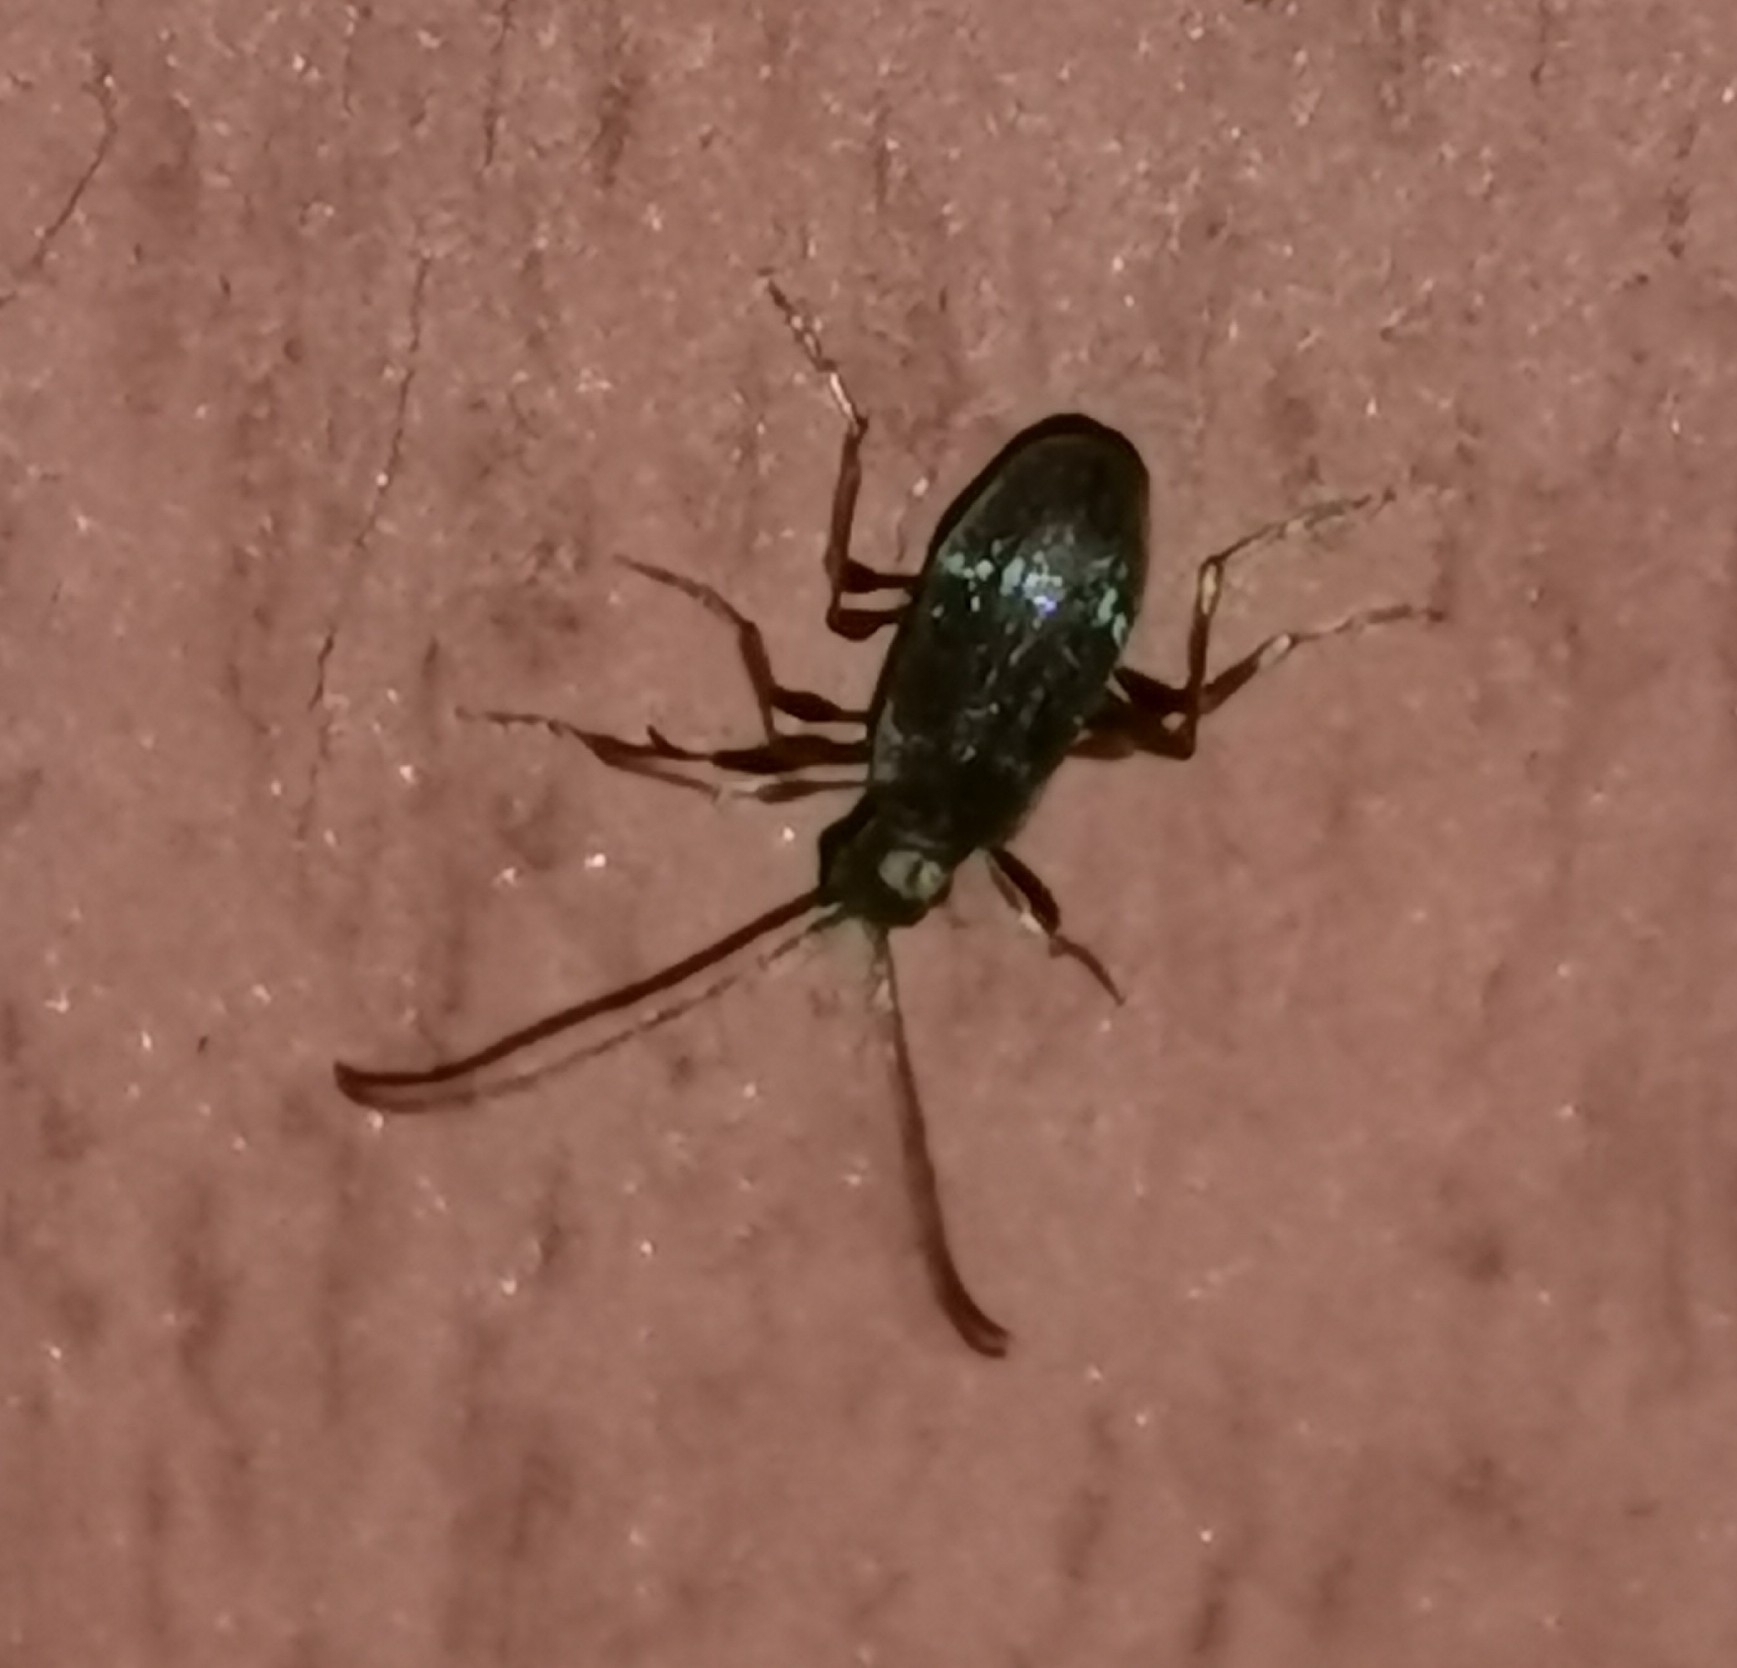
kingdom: Animalia
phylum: Arthropoda
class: Insecta
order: Coleoptera
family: Ptinidae
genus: Ptinus
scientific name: Ptinus raptor
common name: Eastern spider beetle
